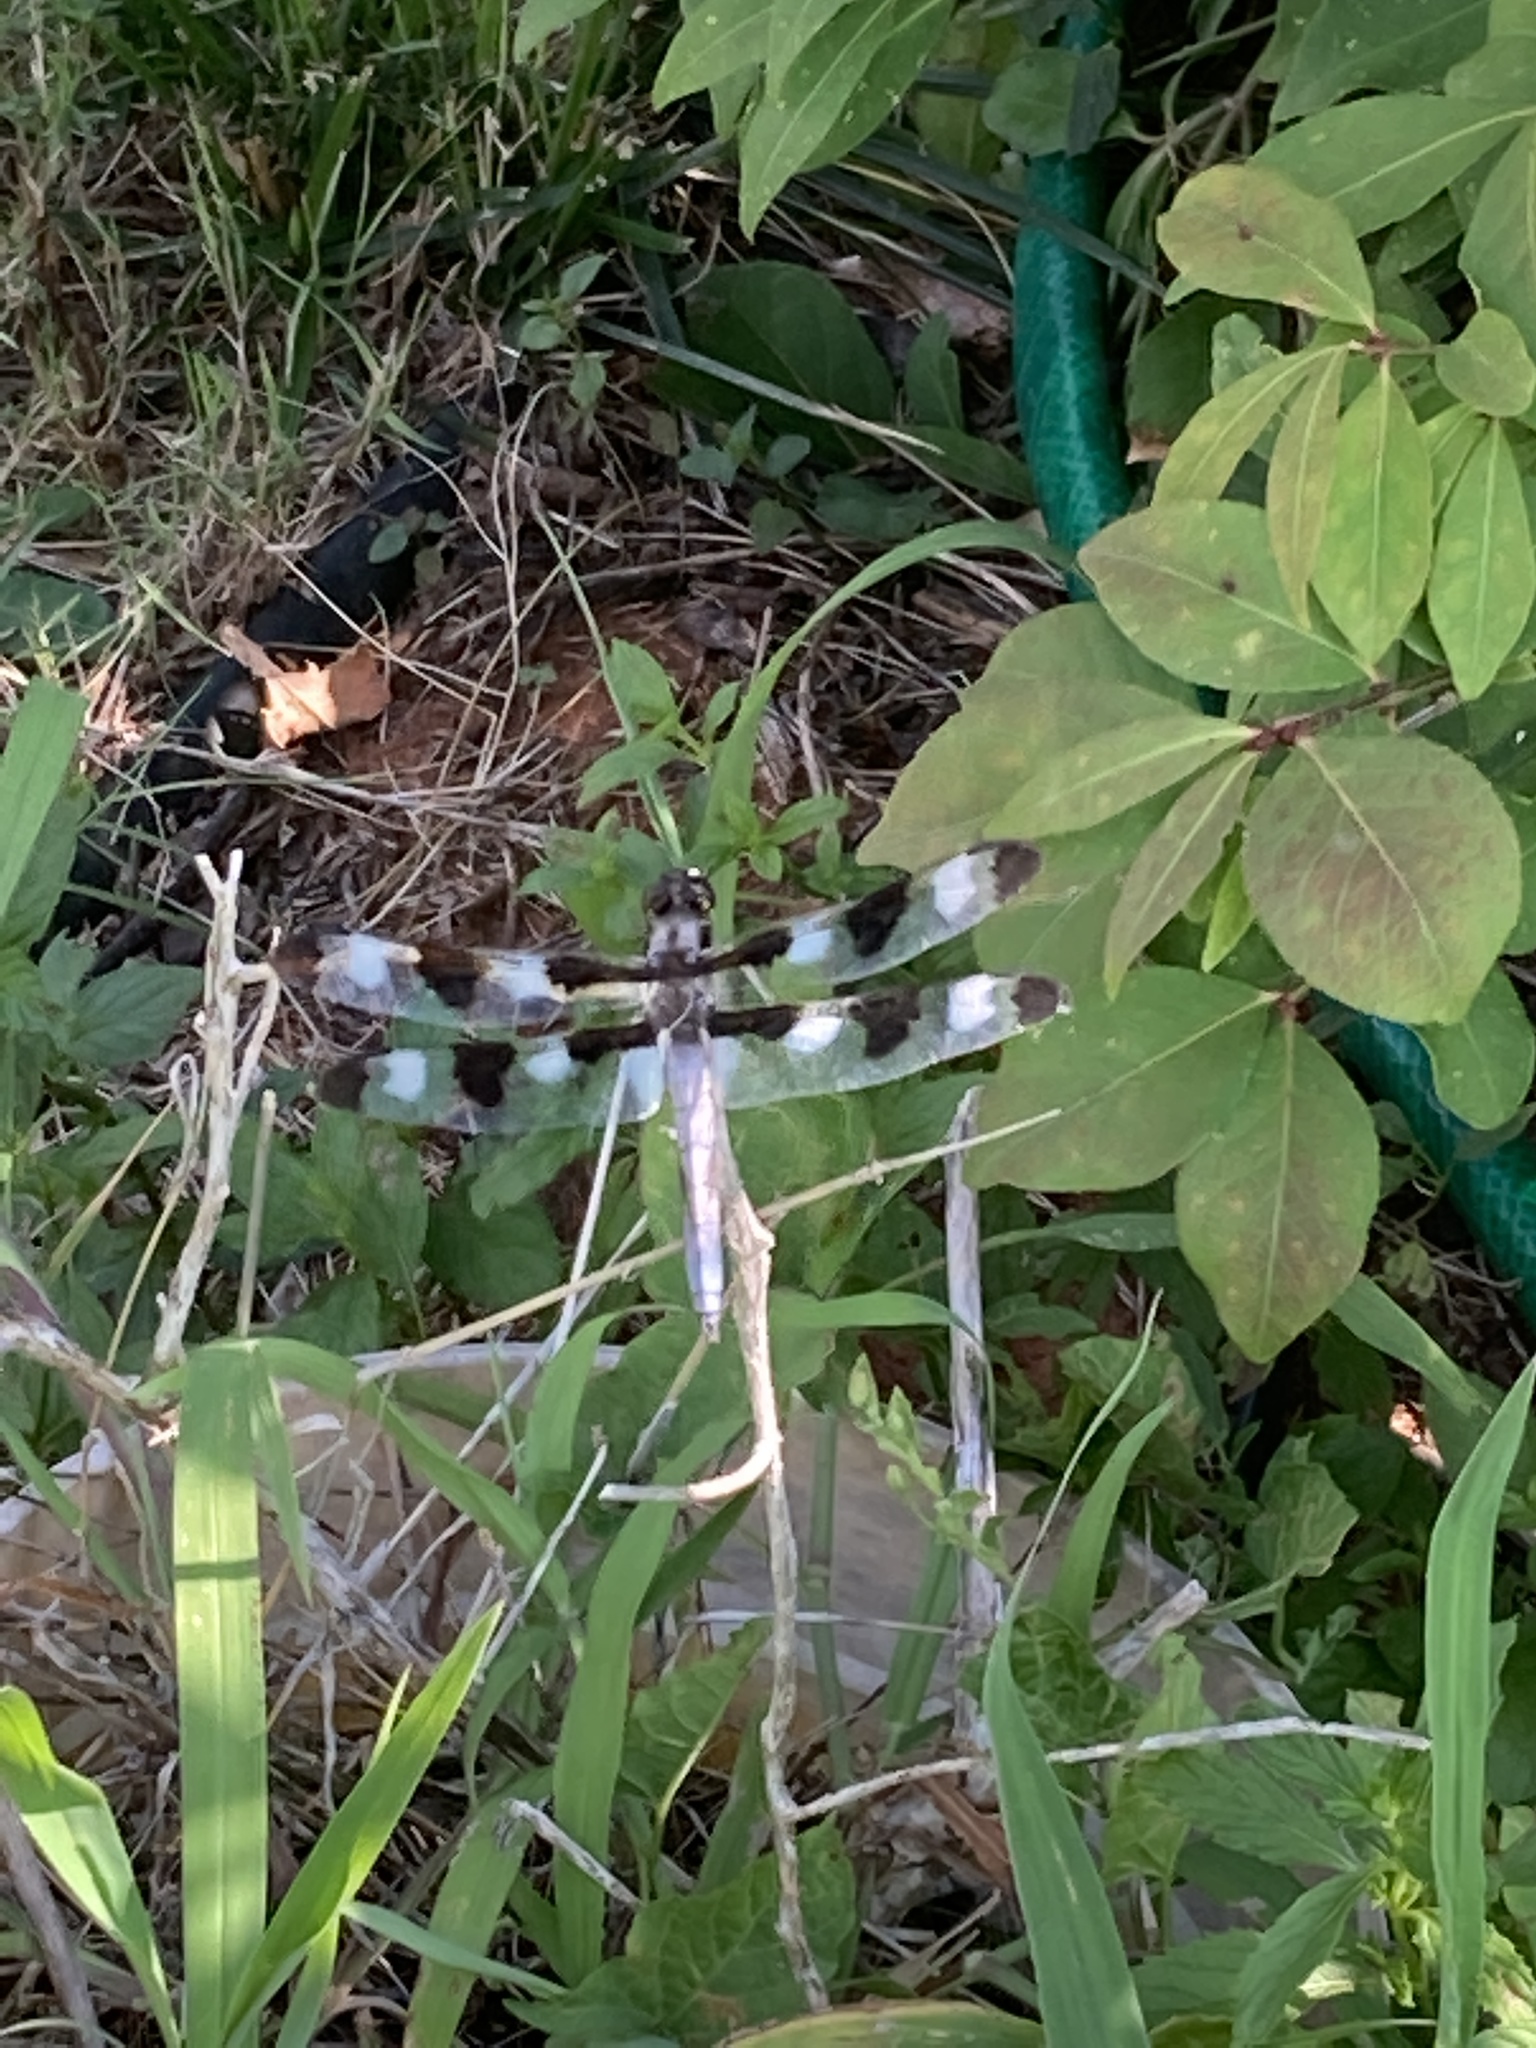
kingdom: Animalia
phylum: Arthropoda
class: Insecta
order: Odonata
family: Libellulidae
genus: Libellula
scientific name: Libellula pulchella
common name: Twelve-spotted skimmer
